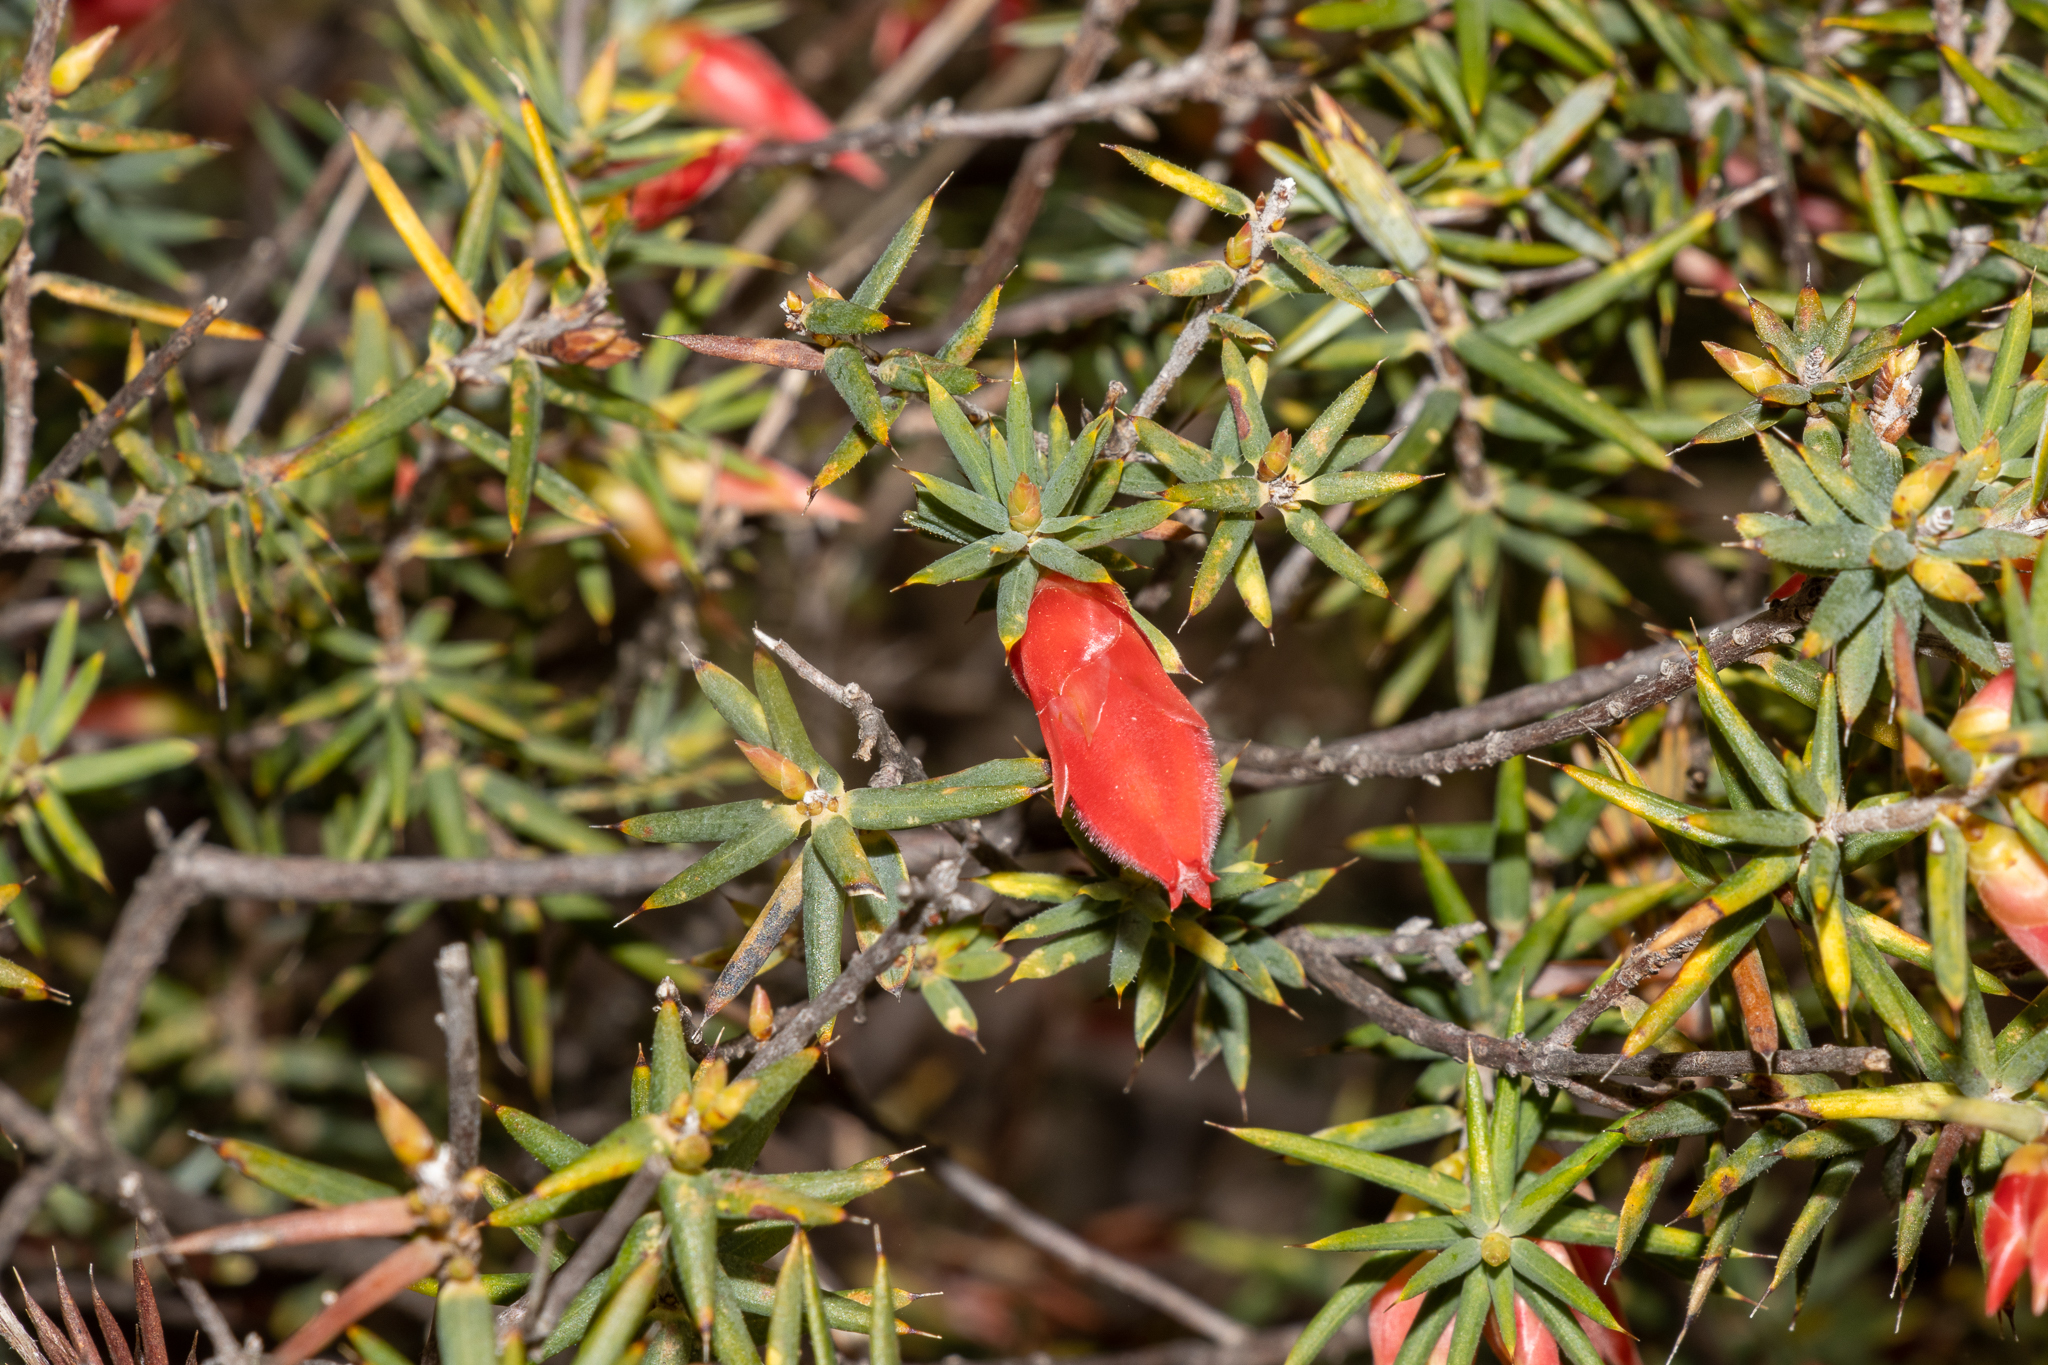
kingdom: Plantae
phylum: Tracheophyta
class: Magnoliopsida
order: Ericales
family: Ericaceae
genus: Stenanthera
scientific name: Stenanthera conostephioides
